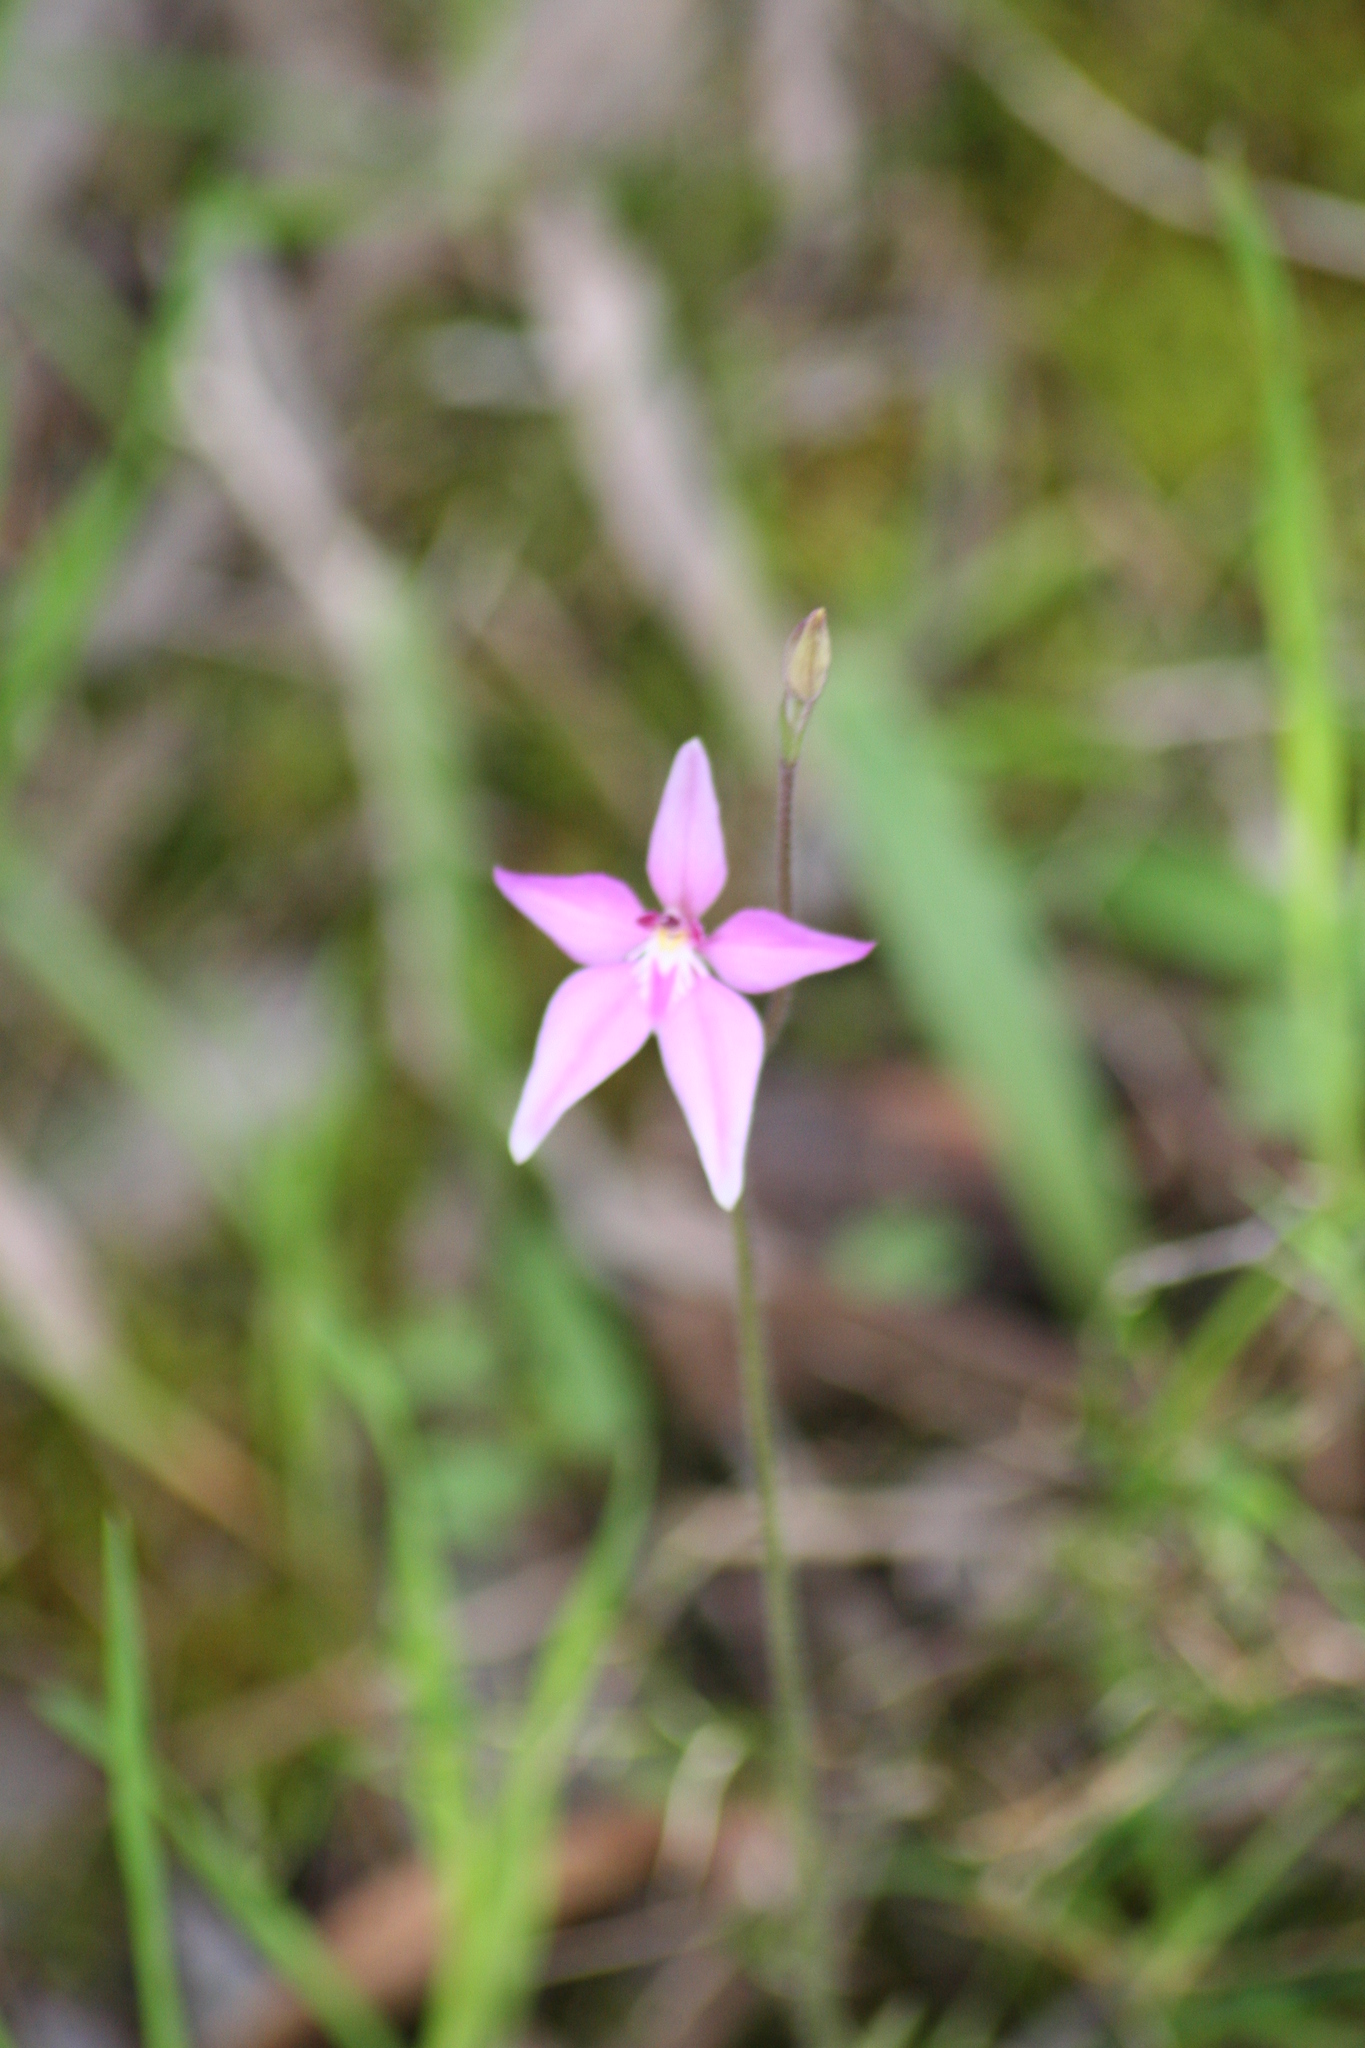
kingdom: Plantae
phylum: Tracheophyta
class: Liliopsida
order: Asparagales
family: Orchidaceae
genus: Caladenia
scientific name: Caladenia latifolia
